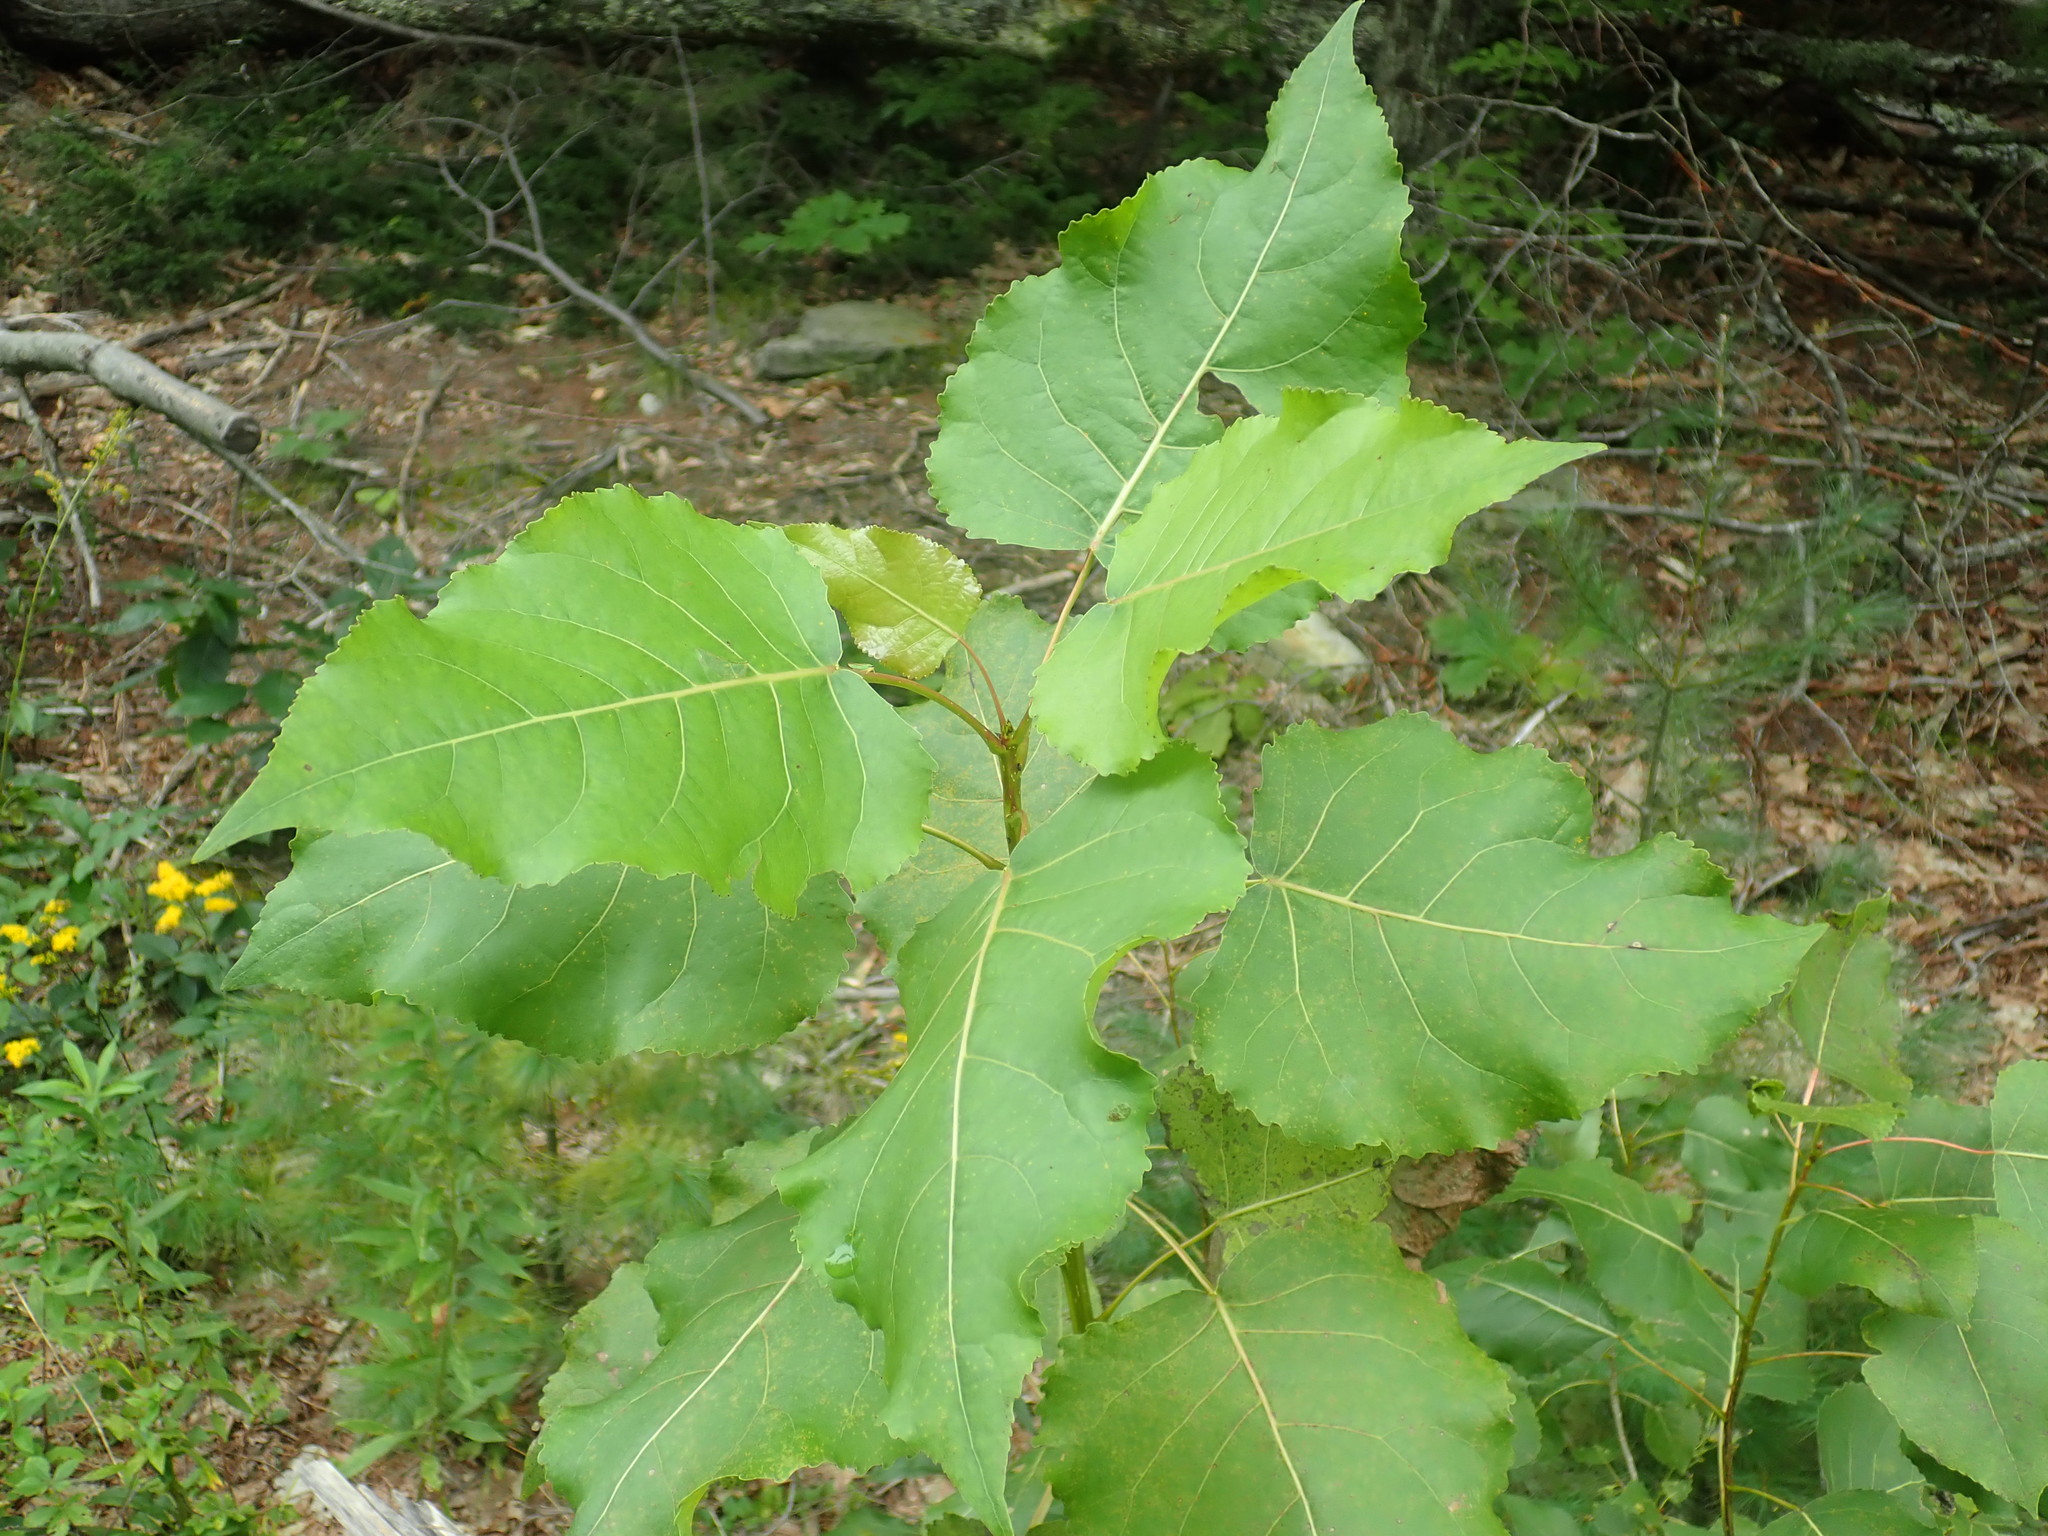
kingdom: Plantae
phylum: Tracheophyta
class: Magnoliopsida
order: Malpighiales
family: Salicaceae
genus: Populus
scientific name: Populus deltoides
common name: Eastern cottonwood
